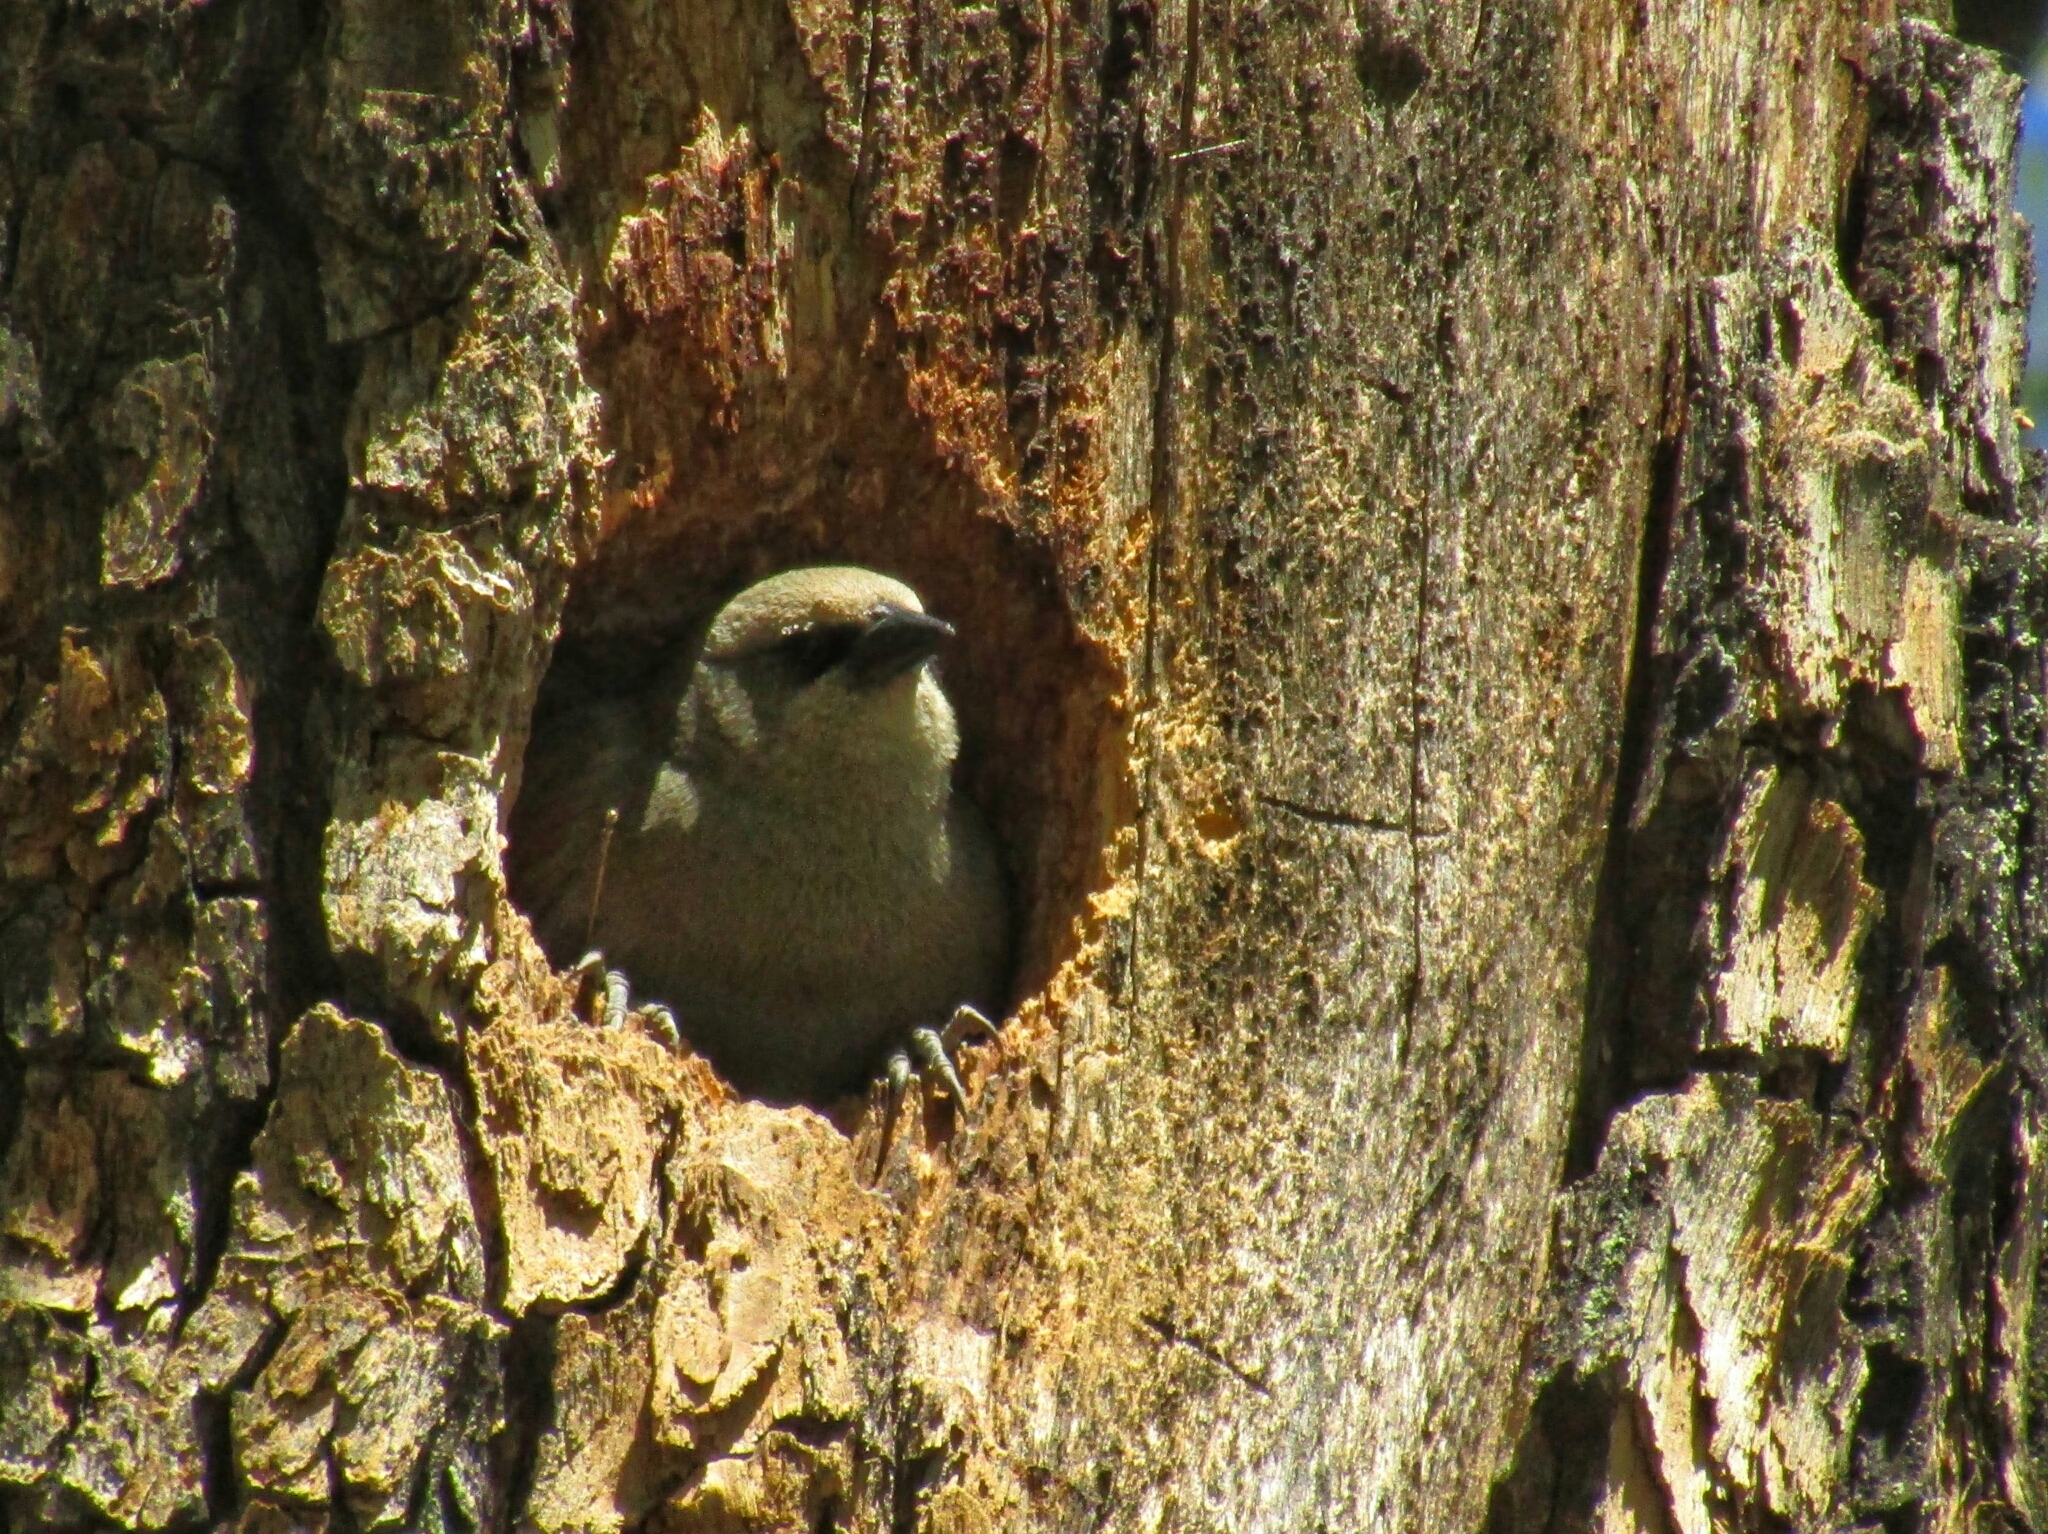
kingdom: Animalia
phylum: Chordata
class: Aves
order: Passeriformes
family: Icteridae
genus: Agelaioides
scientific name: Agelaioides badius
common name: Baywing
